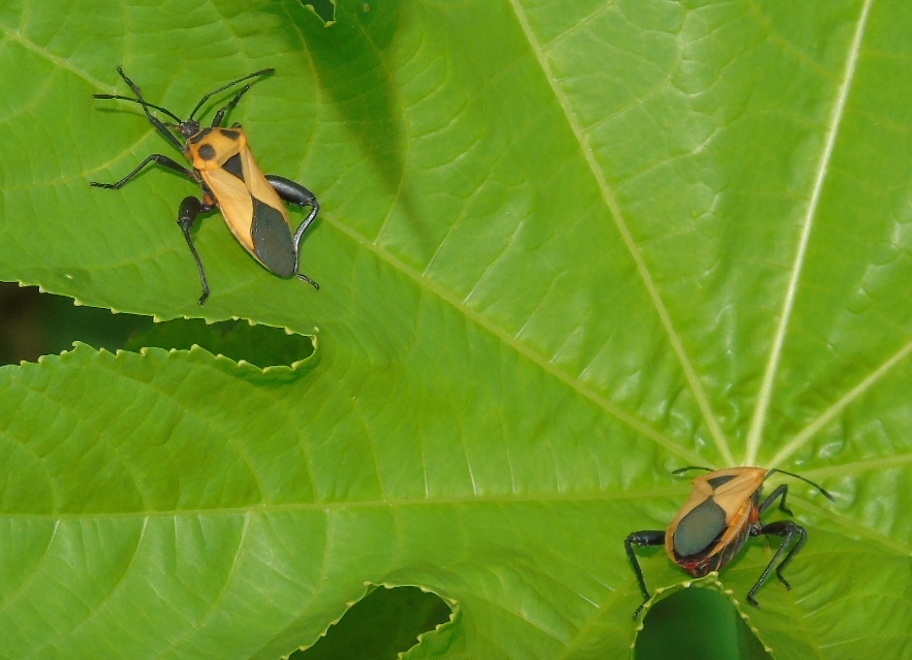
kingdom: Animalia
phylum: Arthropoda
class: Insecta
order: Hemiptera
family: Coreidae
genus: Sagotylus
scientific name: Sagotylus confluens
